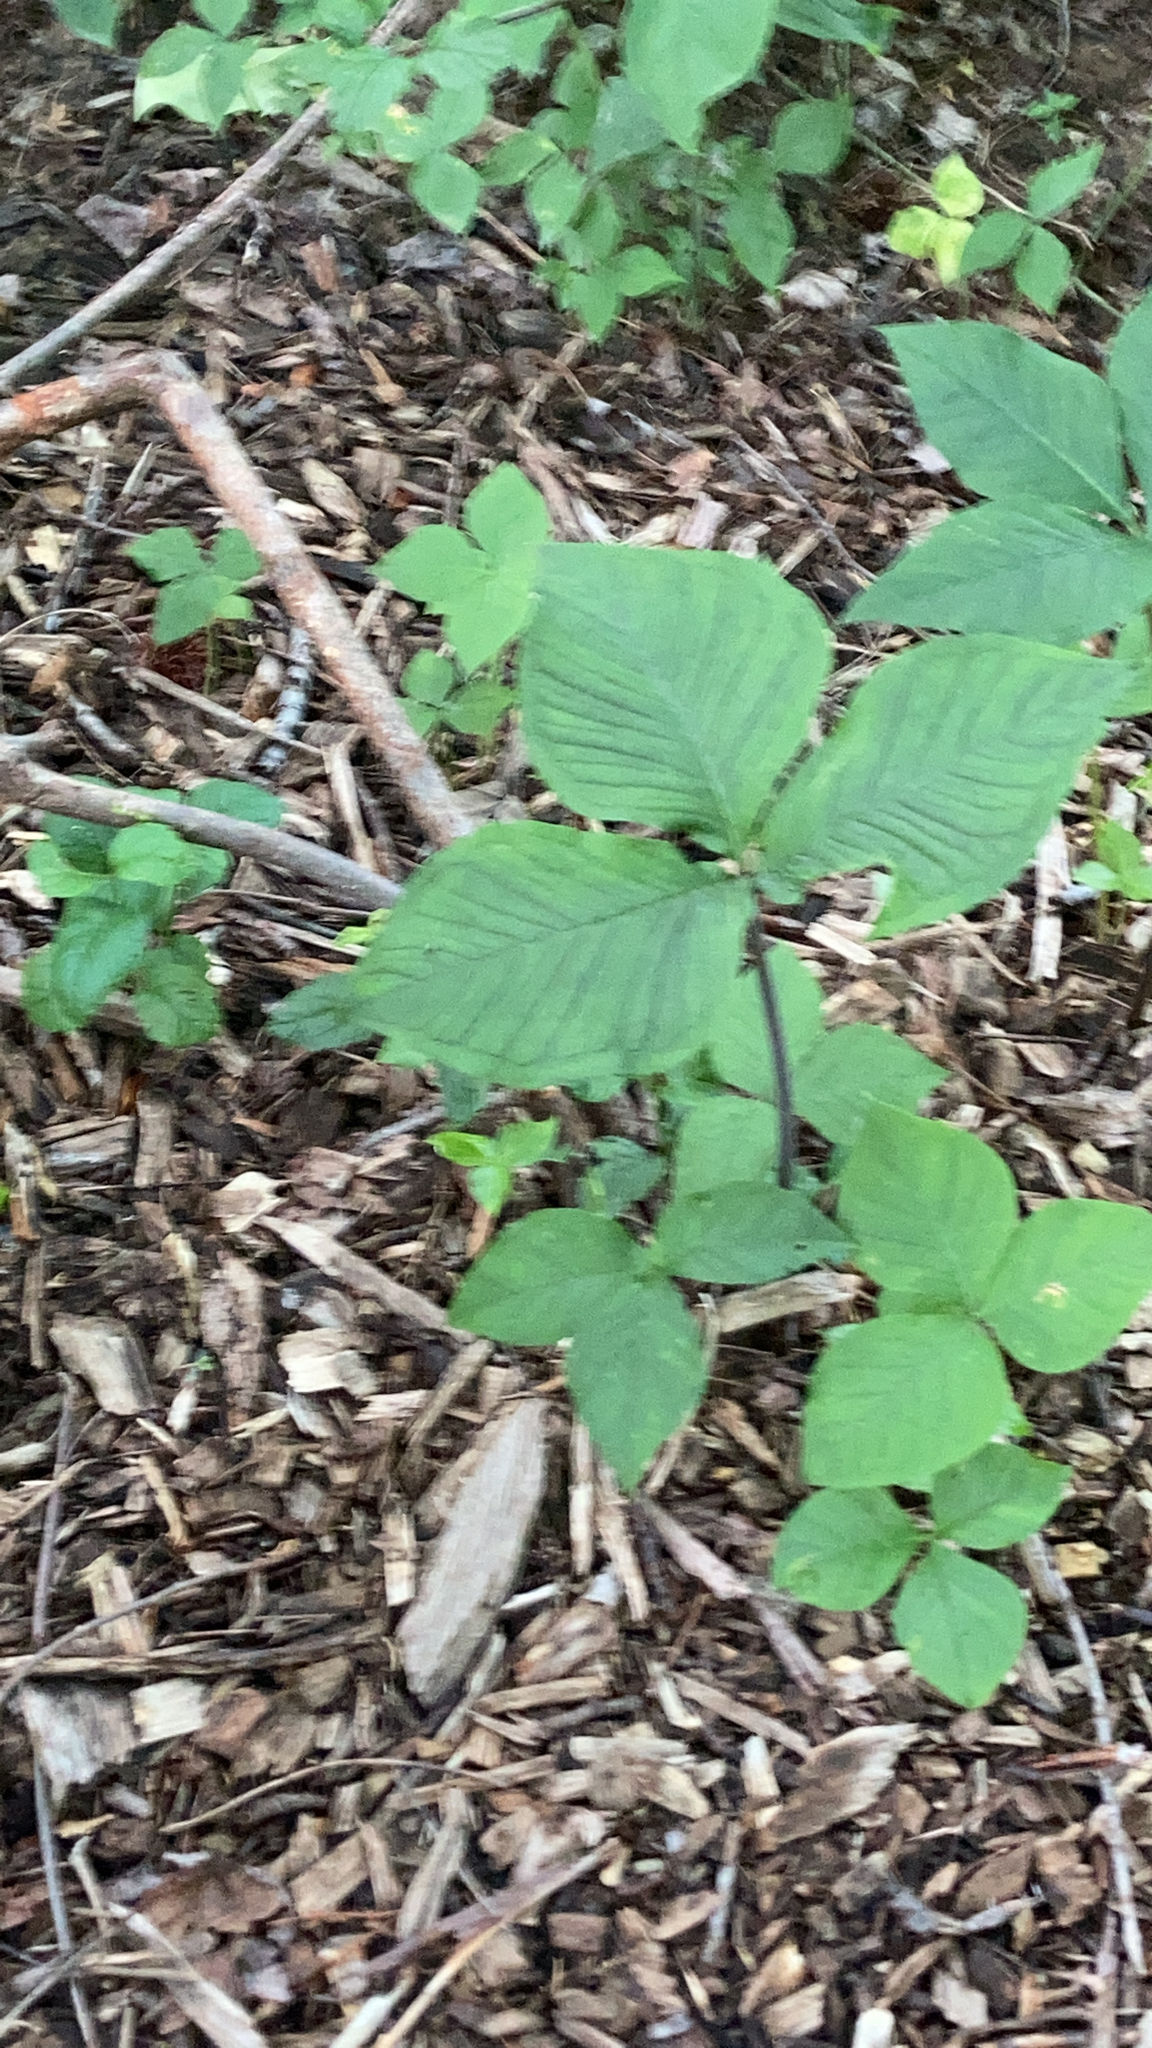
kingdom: Plantae
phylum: Tracheophyta
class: Liliopsida
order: Alismatales
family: Araceae
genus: Arisaema
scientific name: Arisaema triphyllum
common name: Jack-in-the-pulpit
